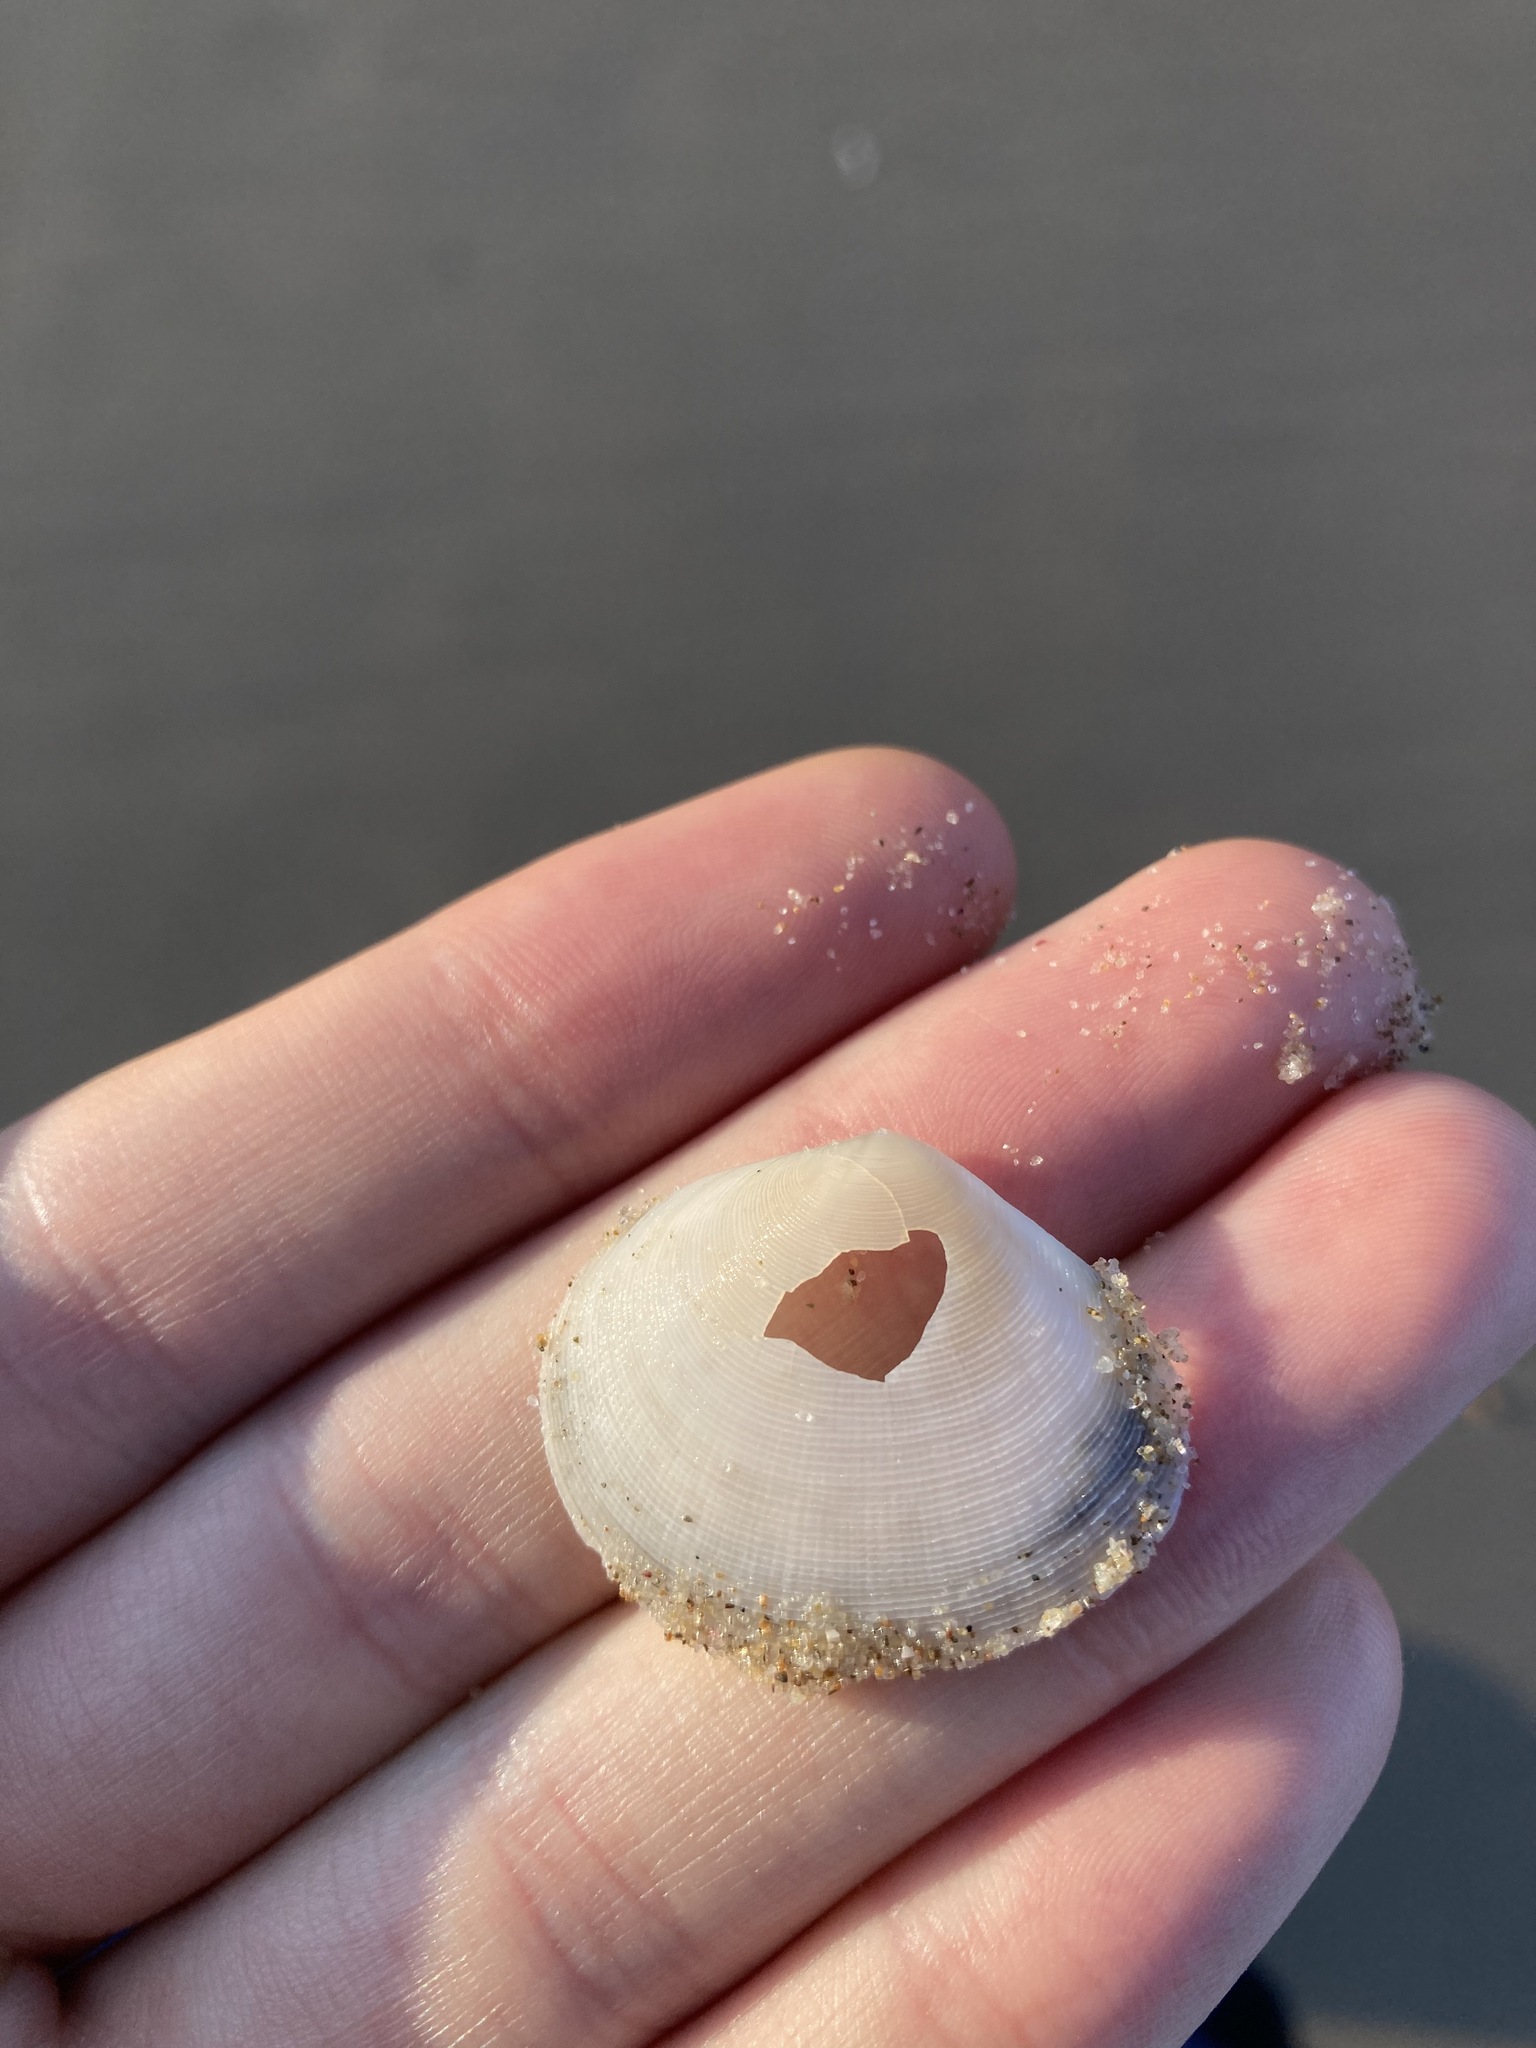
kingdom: Animalia
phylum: Mollusca
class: Bivalvia
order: Cardiida
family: Tellinidae
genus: Pseudarcopagia
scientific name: Pseudarcopagia botanica
